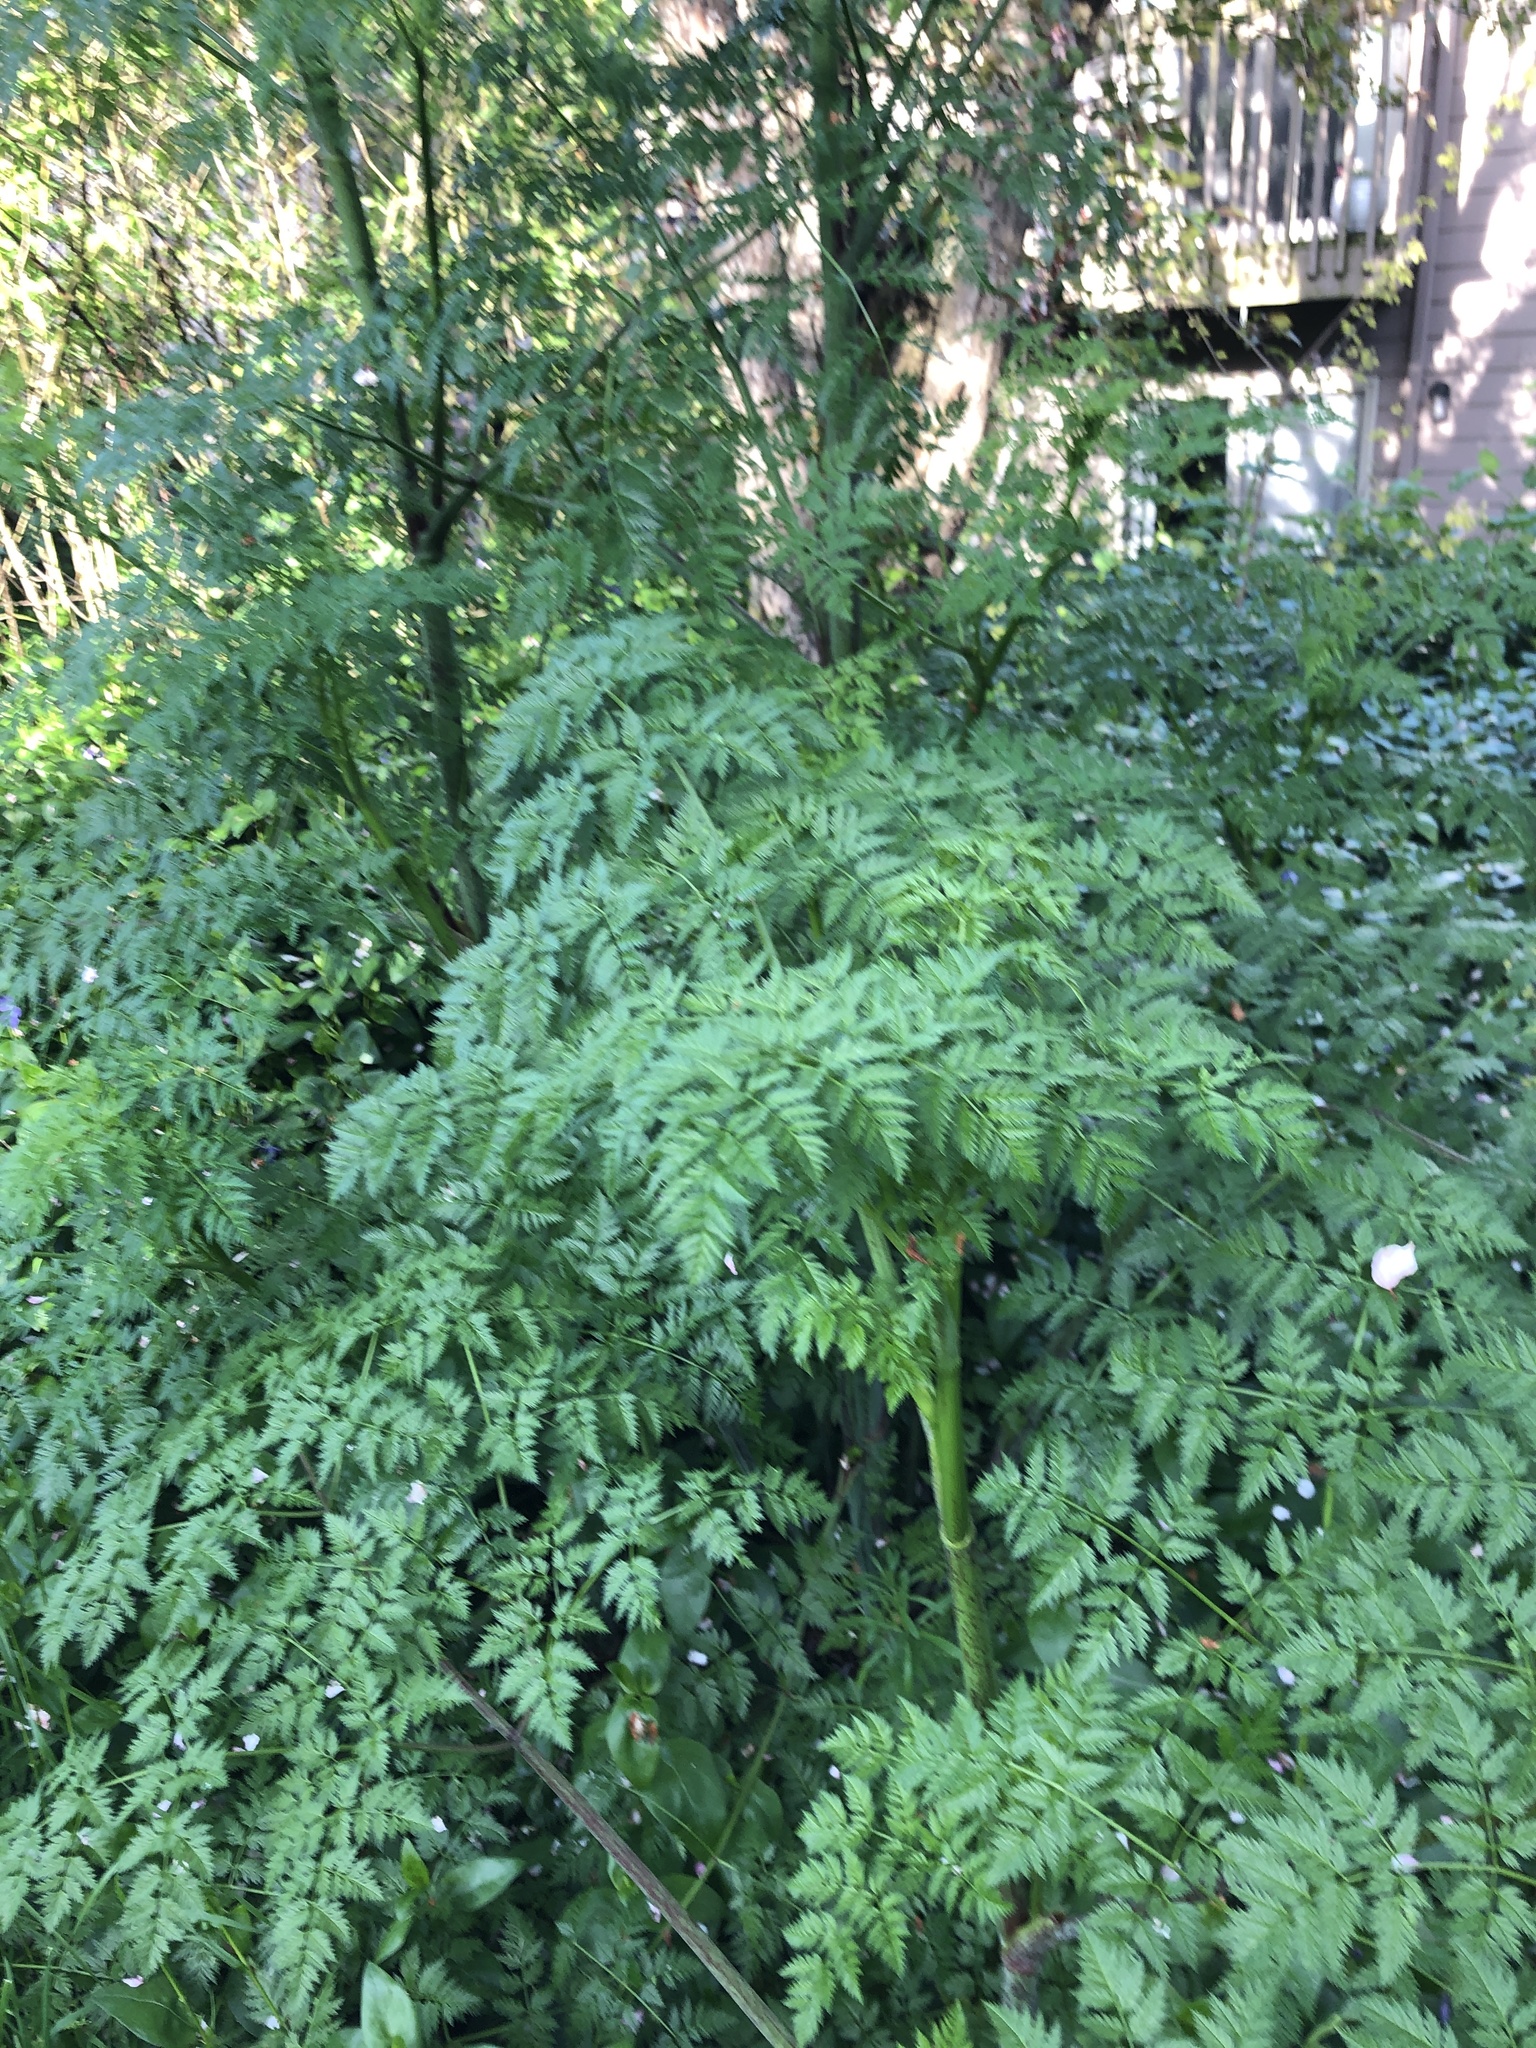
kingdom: Plantae
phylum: Tracheophyta
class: Magnoliopsida
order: Apiales
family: Apiaceae
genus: Conium
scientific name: Conium maculatum
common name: Hemlock
